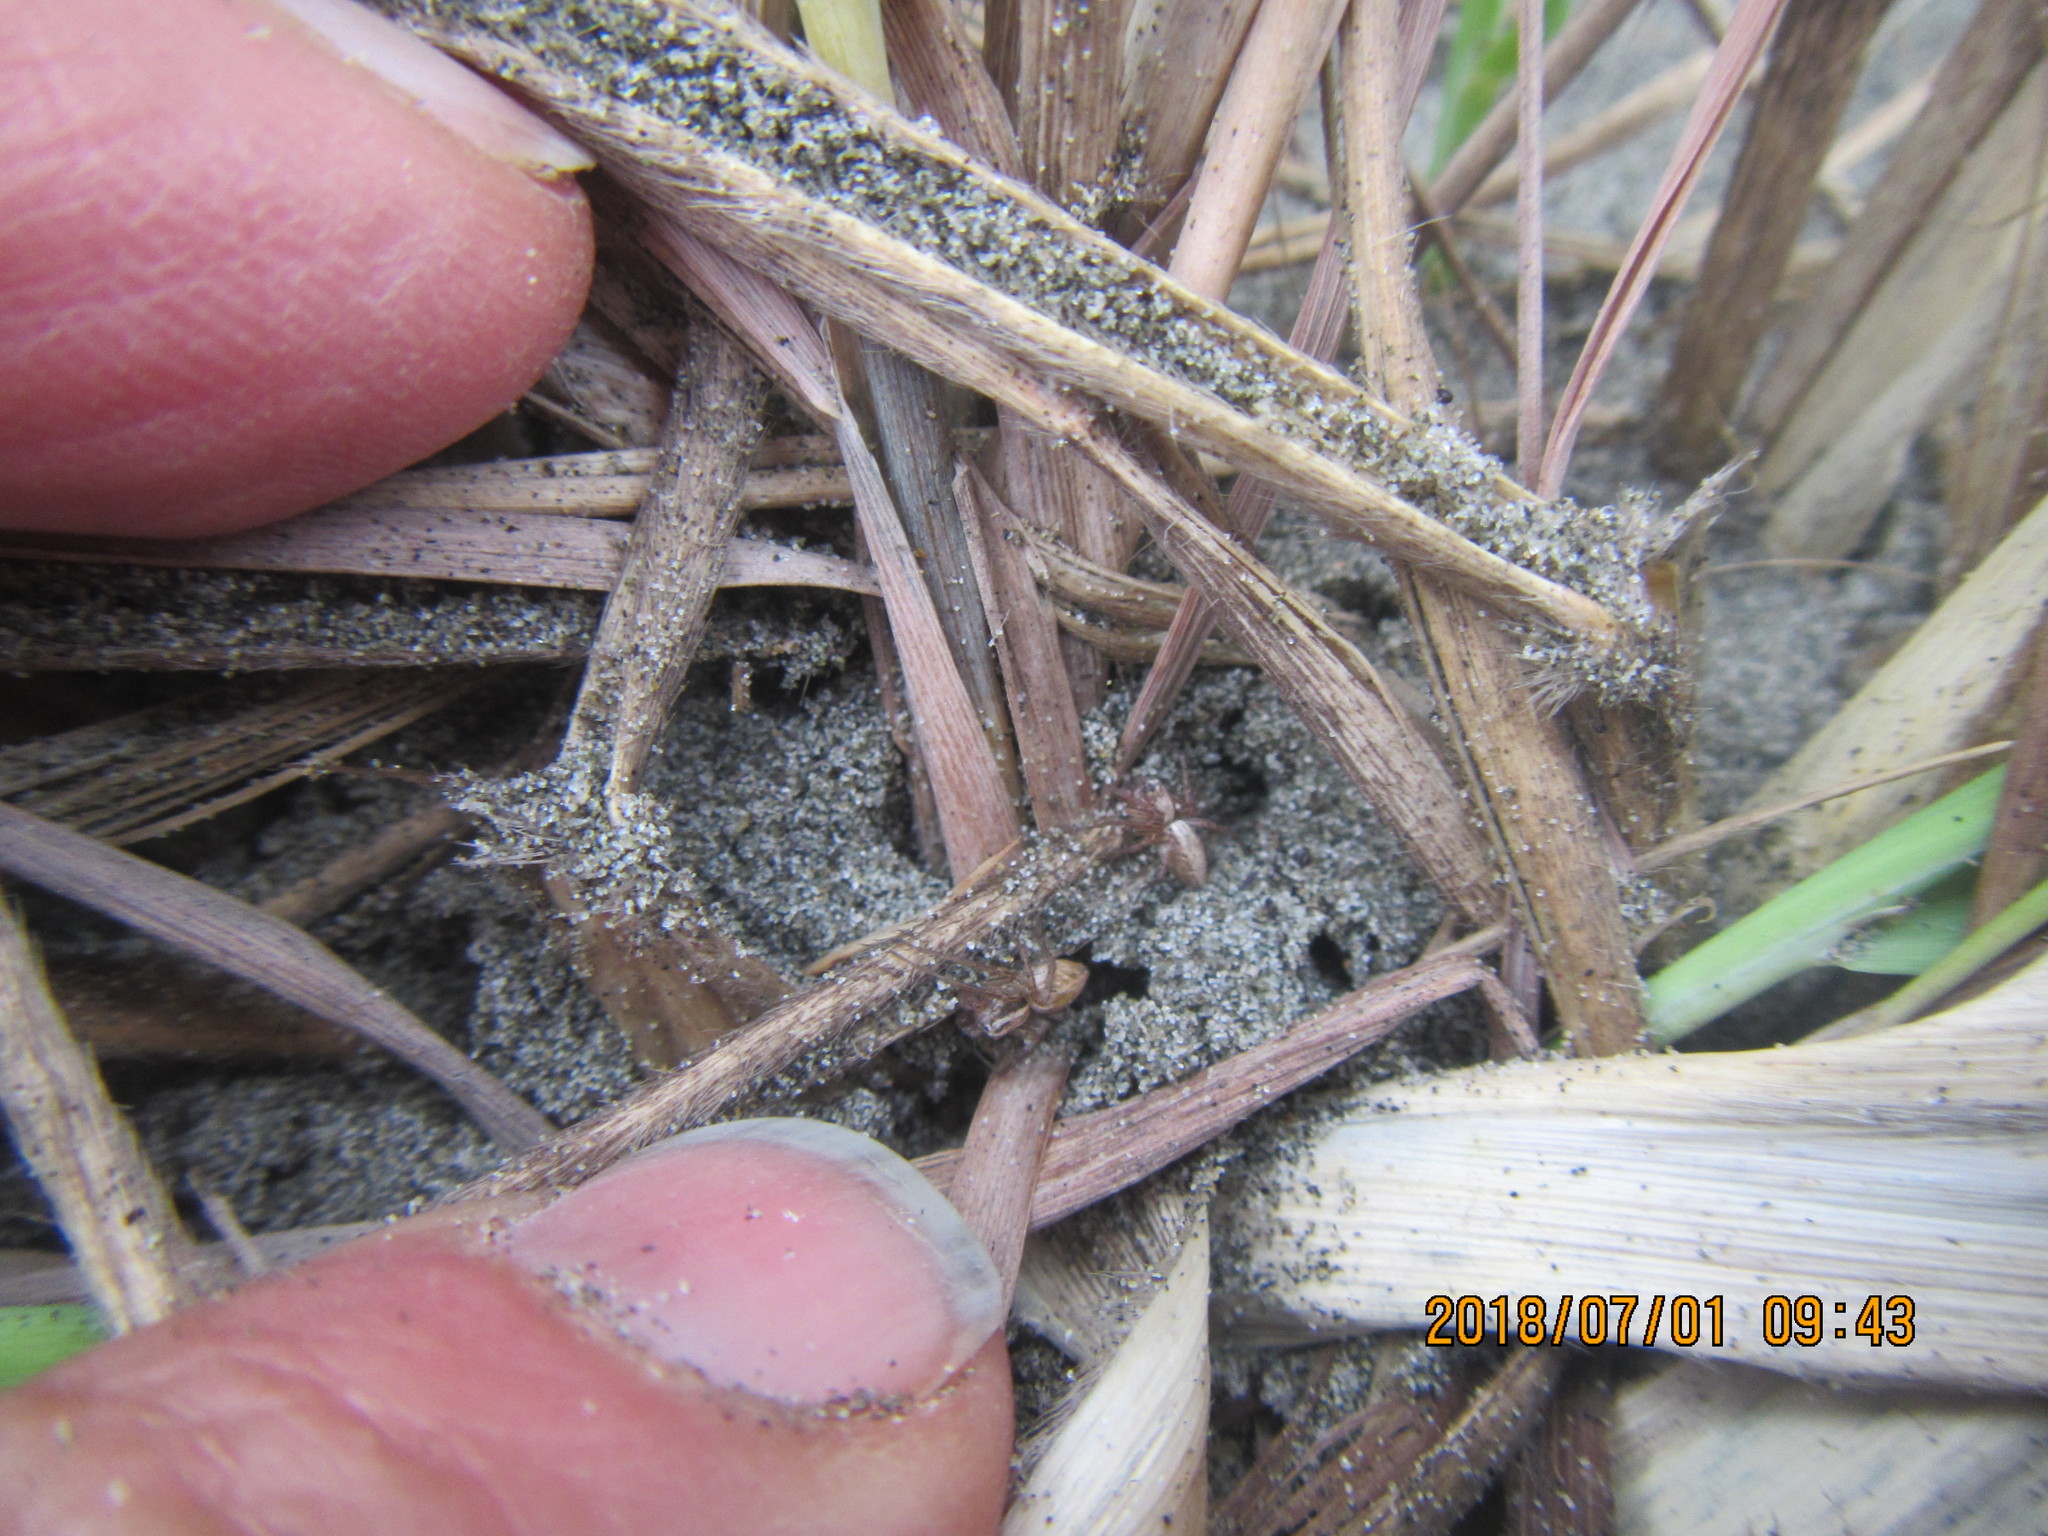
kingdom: Animalia
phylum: Arthropoda
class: Arachnida
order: Araneae
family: Oxyopidae
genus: Oxyopes
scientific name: Oxyopes gracilipes
